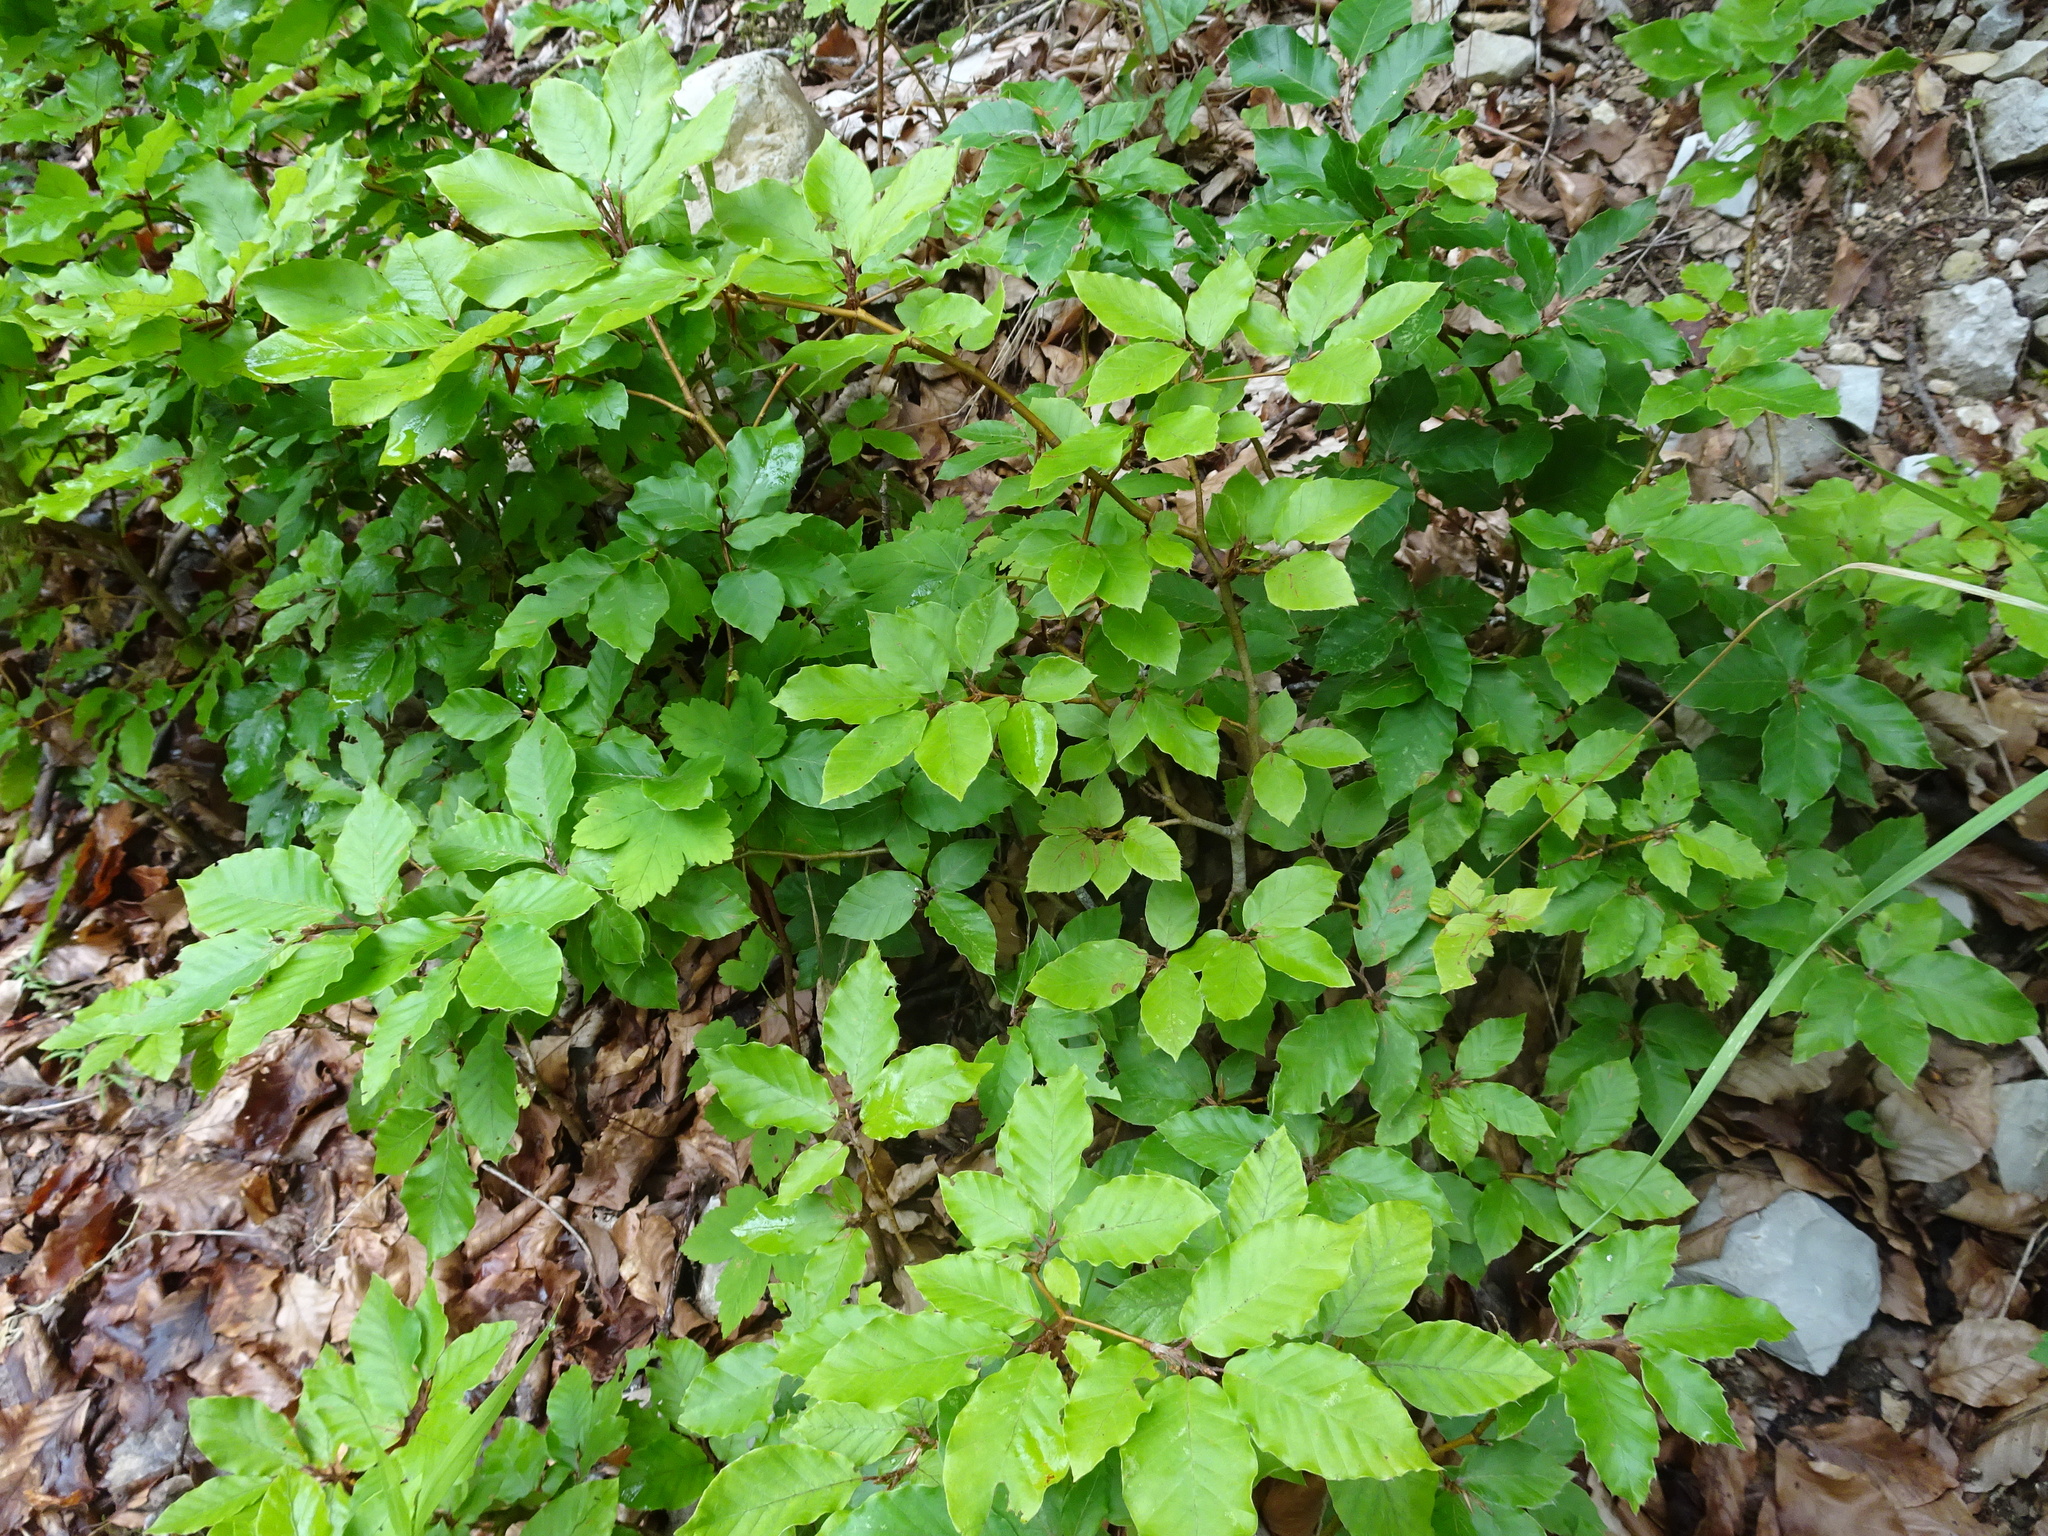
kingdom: Plantae
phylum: Tracheophyta
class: Magnoliopsida
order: Fagales
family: Fagaceae
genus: Fagus
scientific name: Fagus sylvatica
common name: Beech
